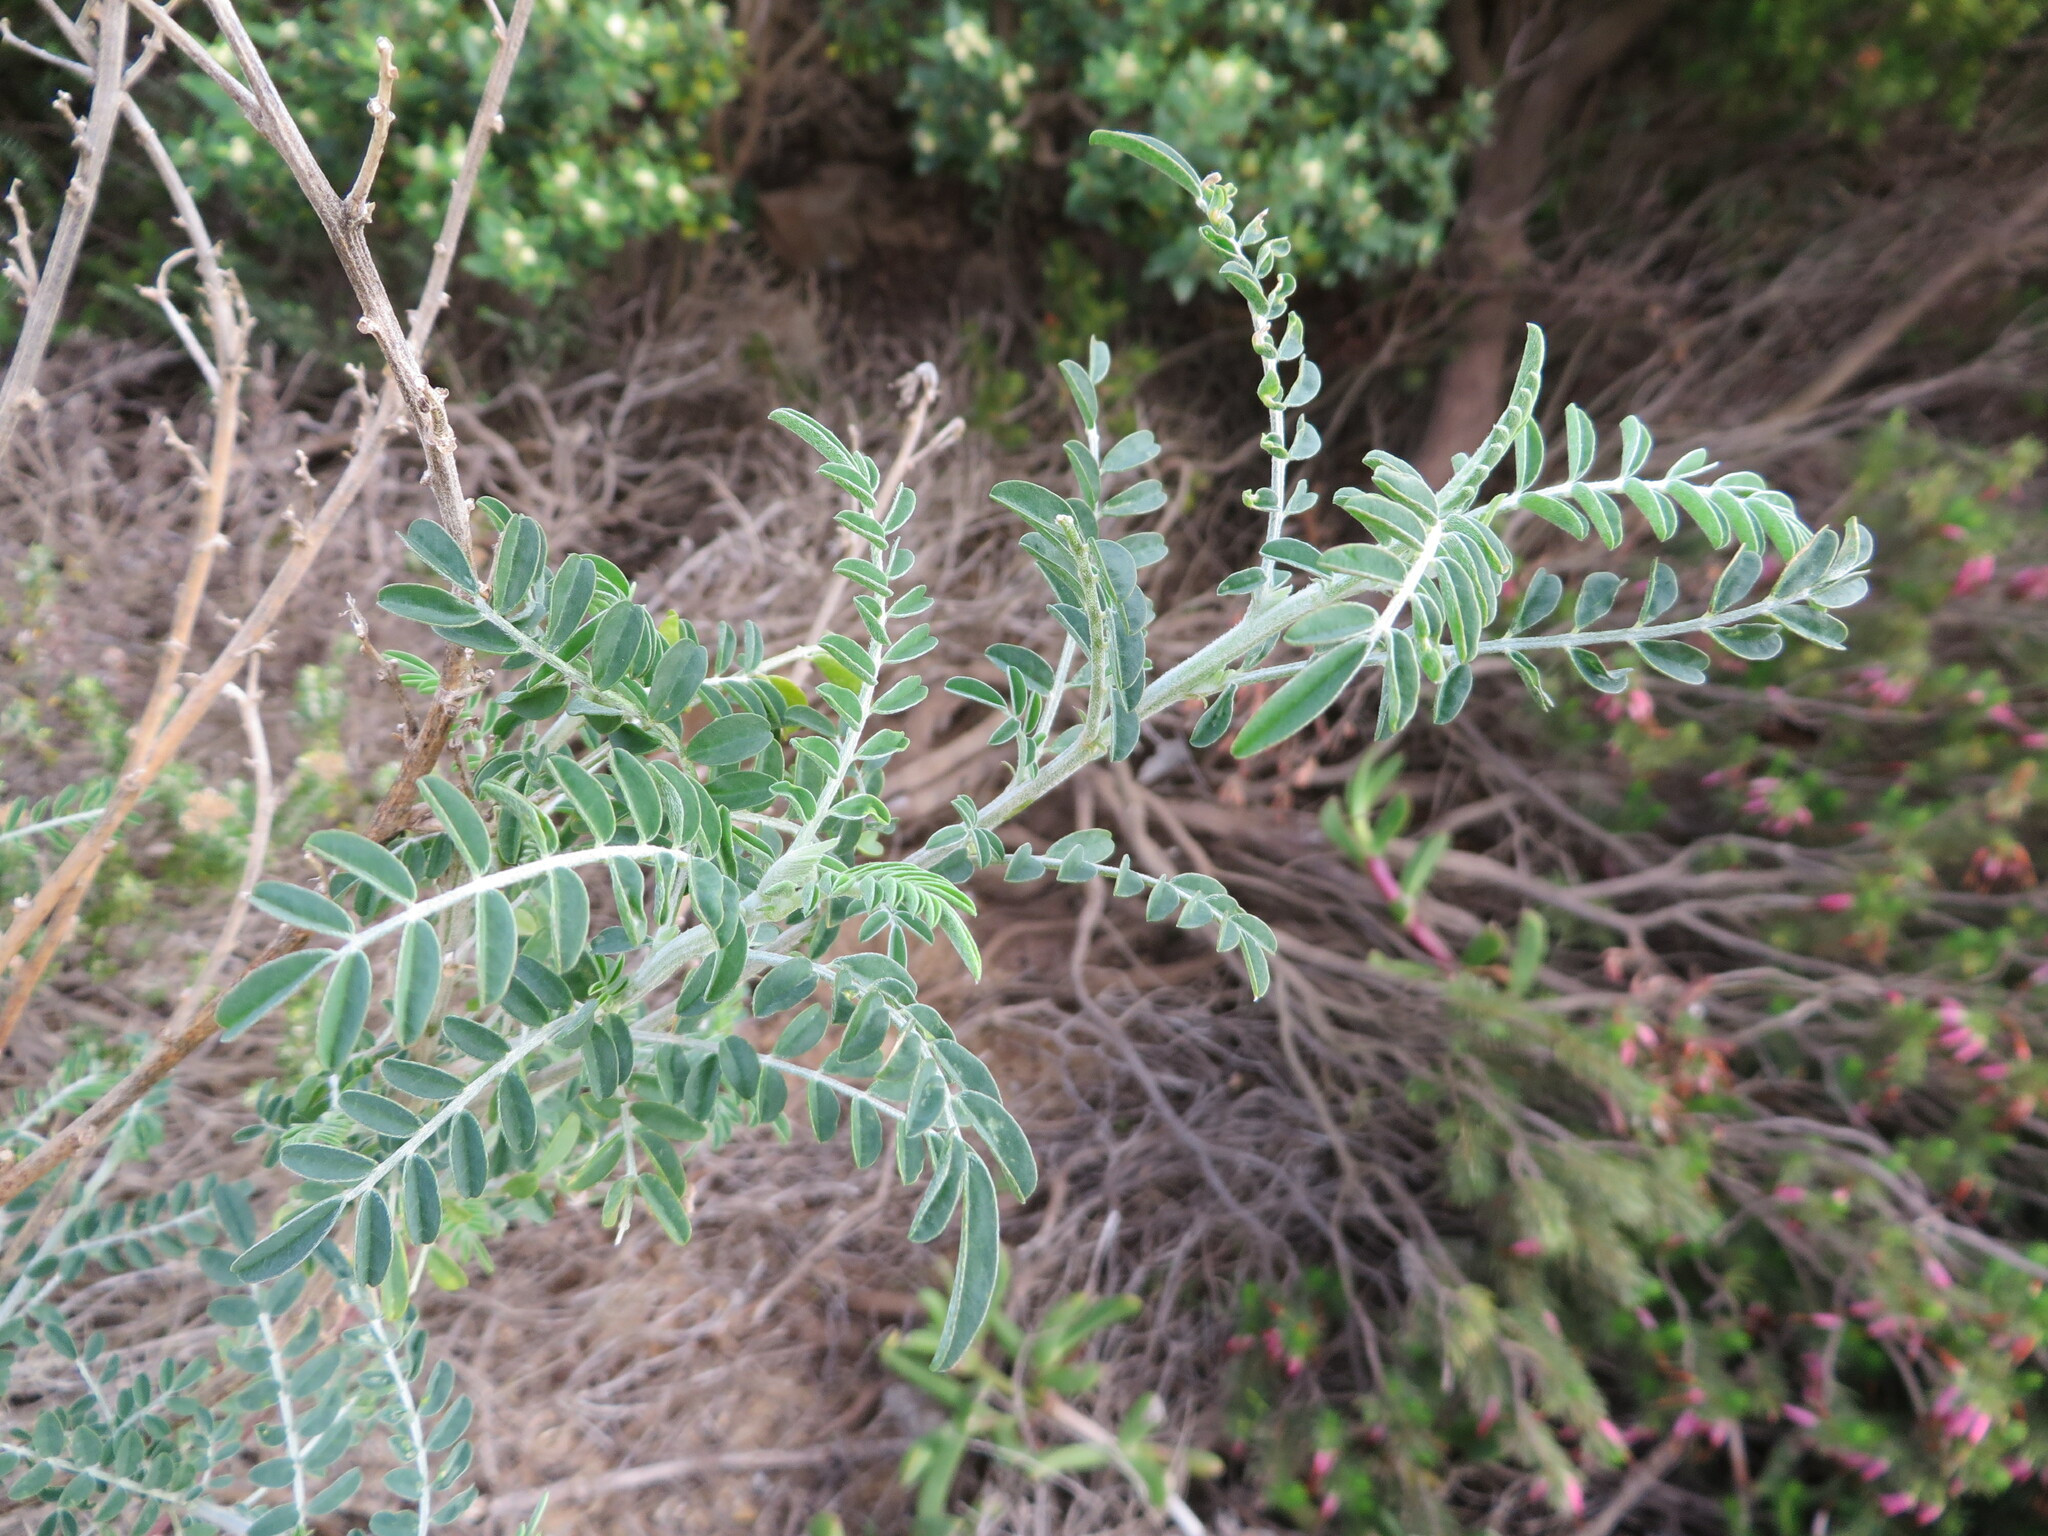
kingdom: Plantae
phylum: Tracheophyta
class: Magnoliopsida
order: Fabales
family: Fabaceae
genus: Lessertia
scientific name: Lessertia frutescens
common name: Balloon-pea
